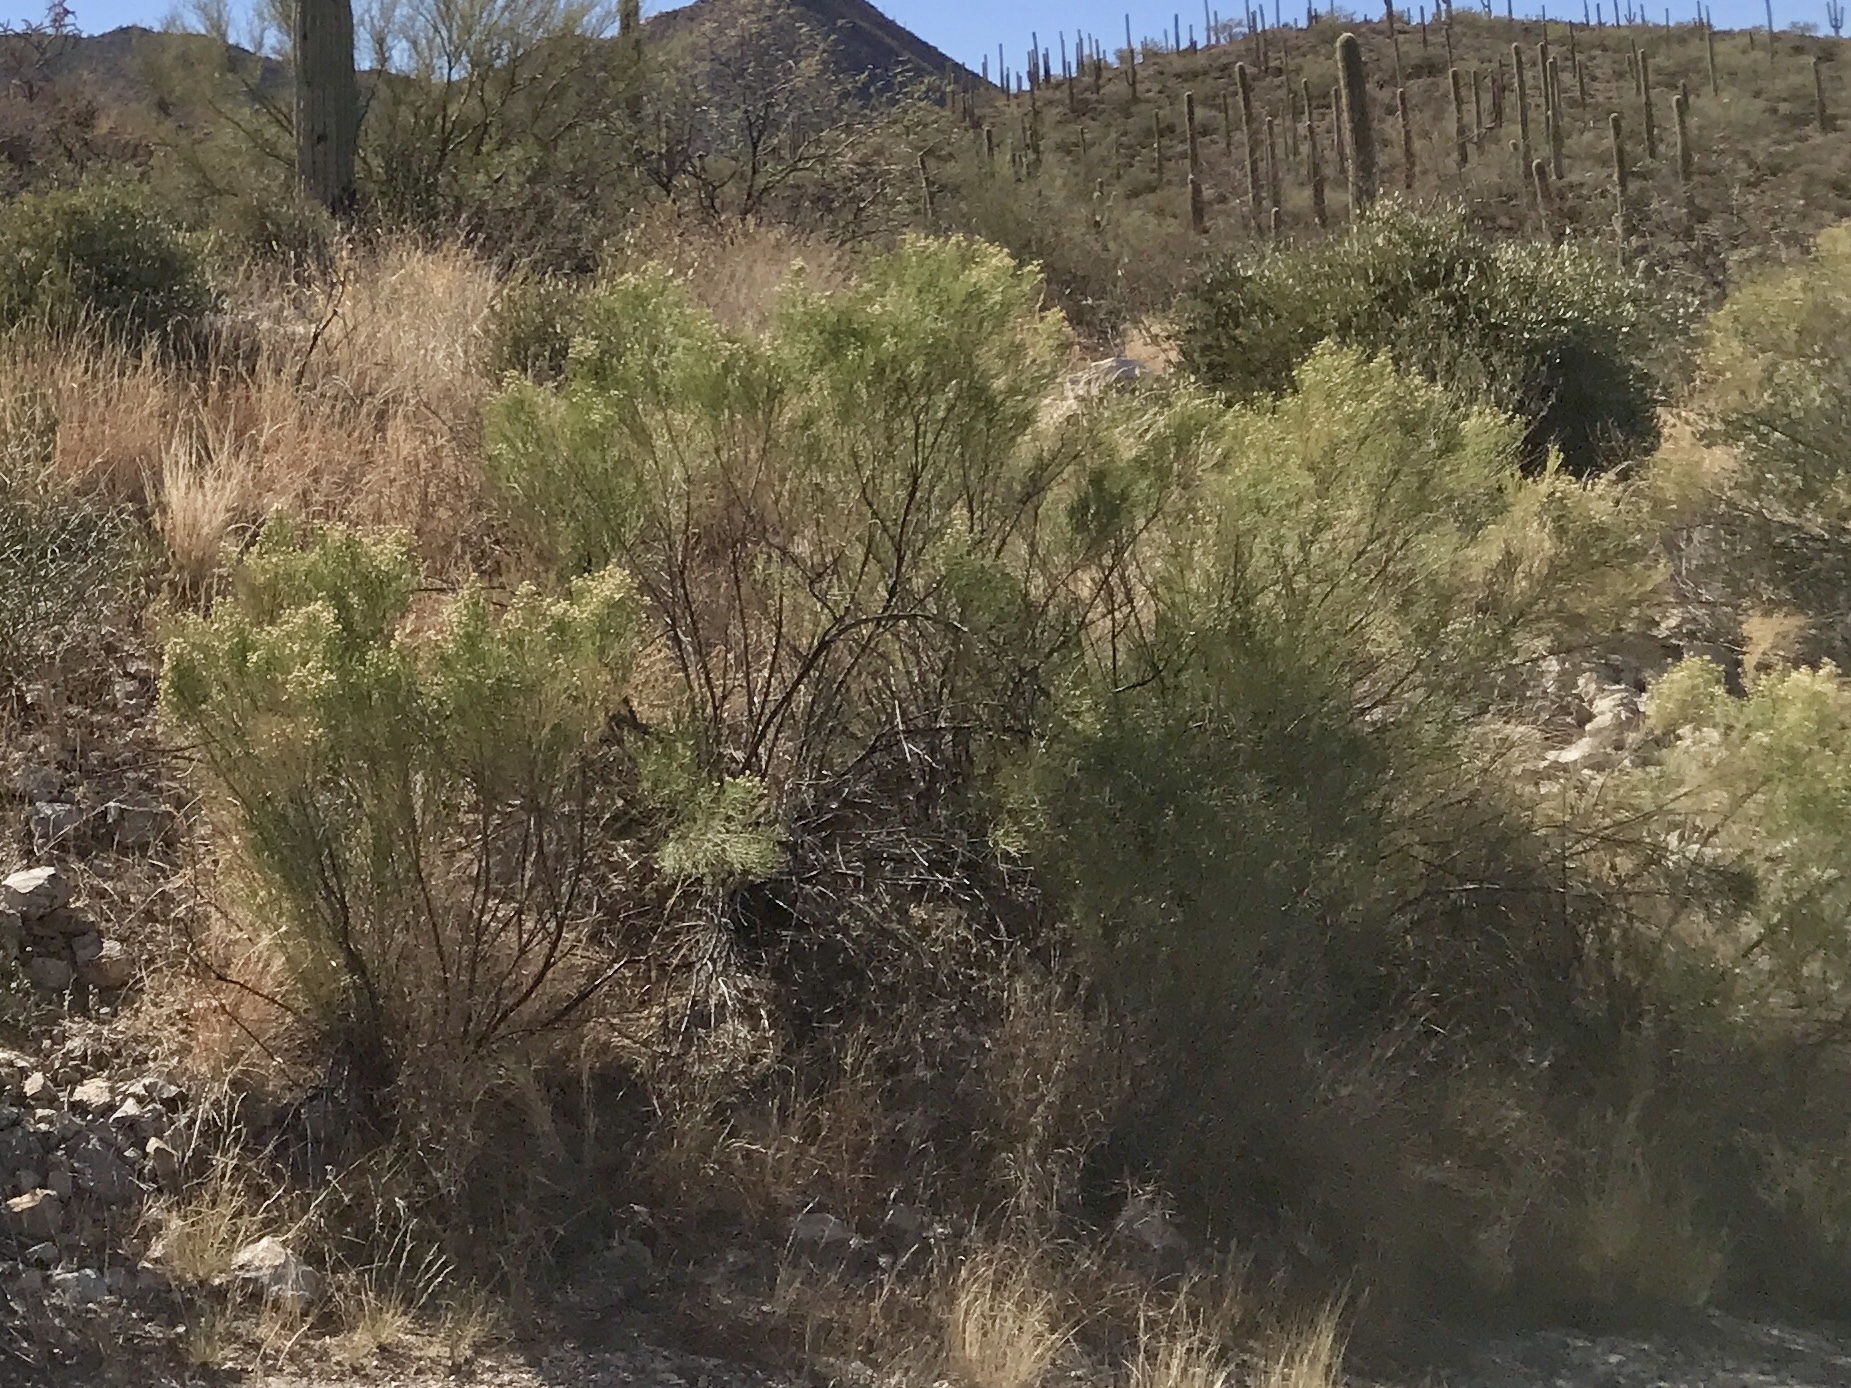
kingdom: Plantae
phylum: Tracheophyta
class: Magnoliopsida
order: Asterales
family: Asteraceae
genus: Baccharis
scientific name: Baccharis sarothroides
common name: Desert-broom
